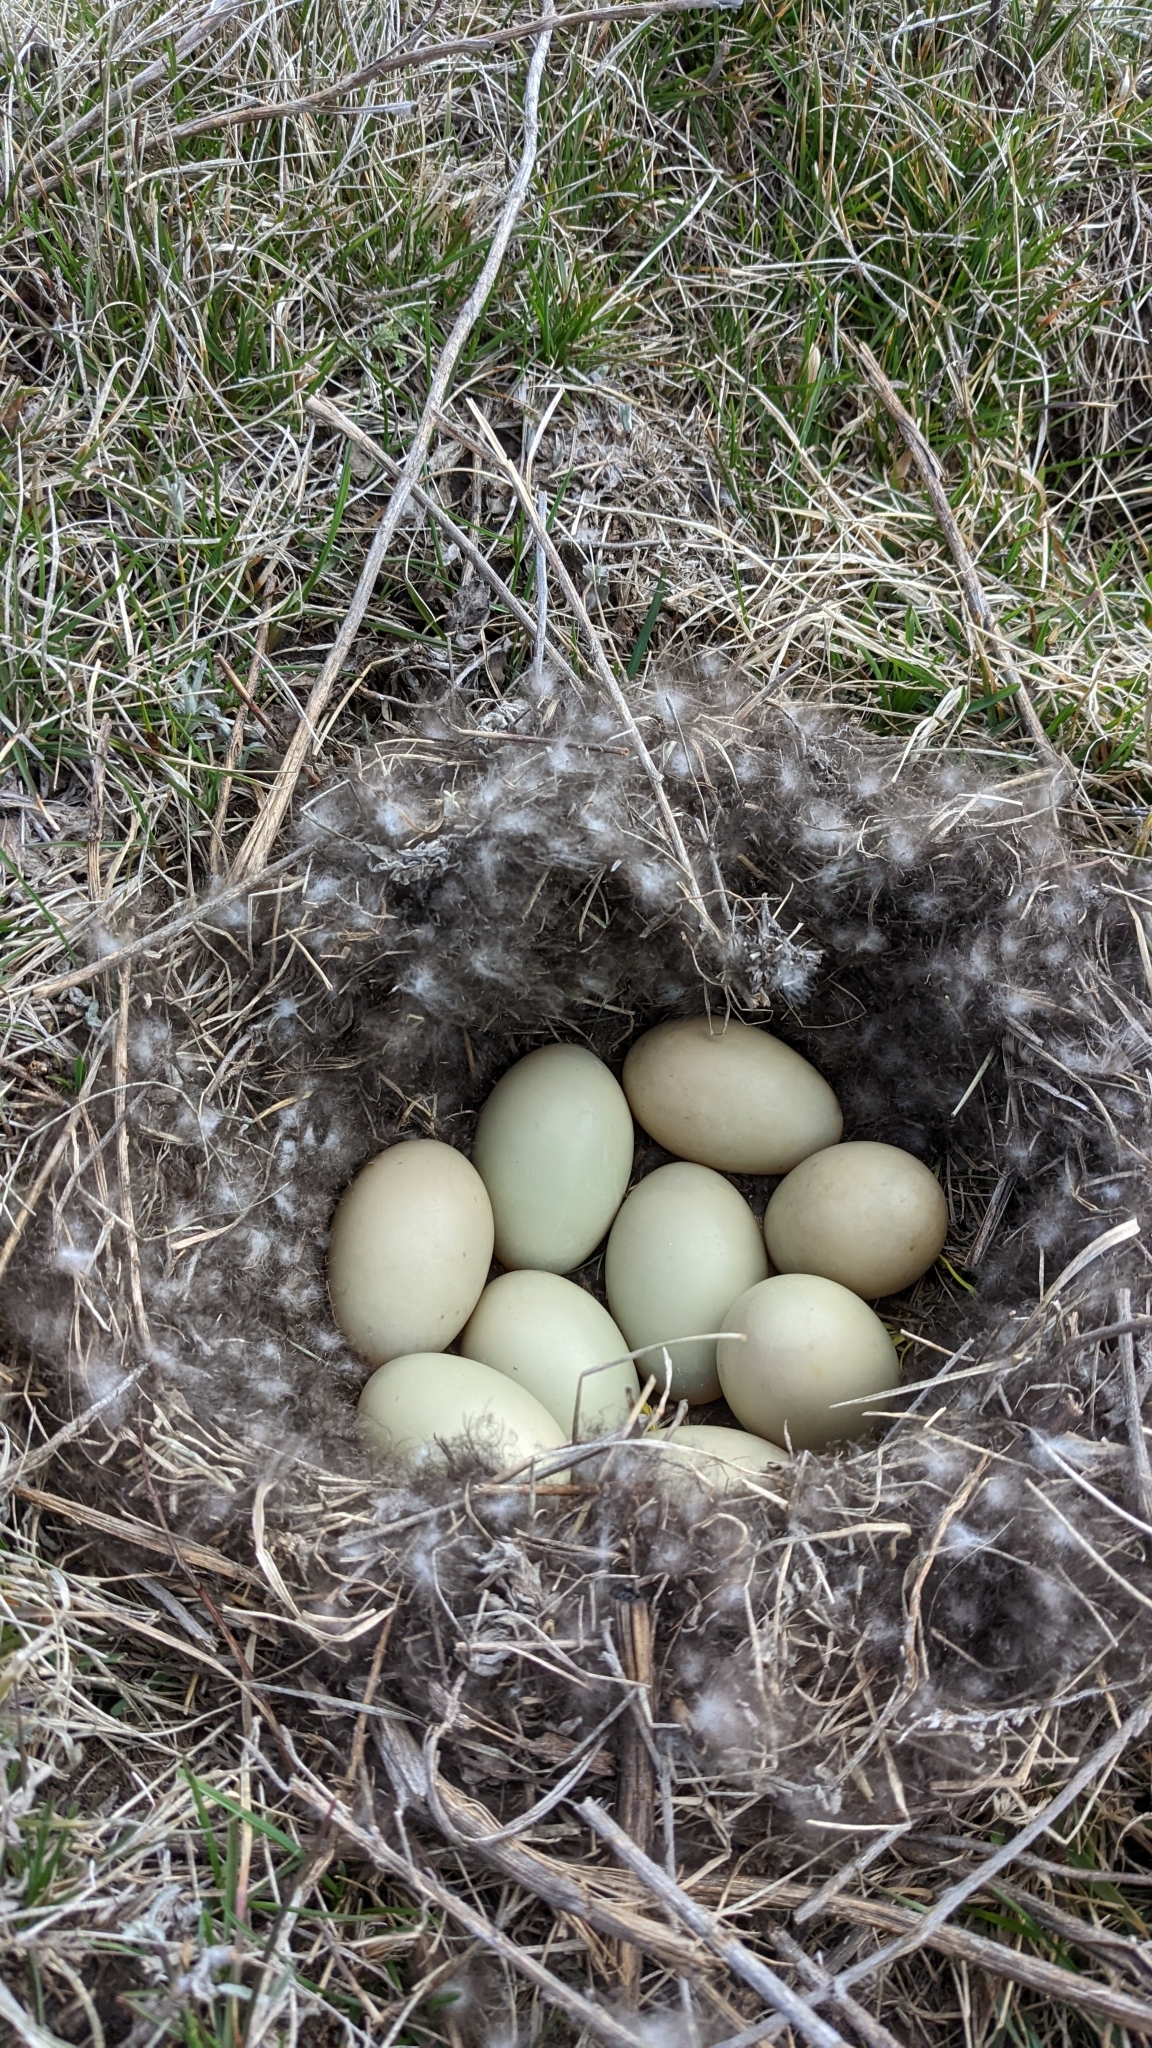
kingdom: Animalia
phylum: Chordata
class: Aves
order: Anseriformes
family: Anatidae
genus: Anas
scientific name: Anas acuta
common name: Northern pintail
